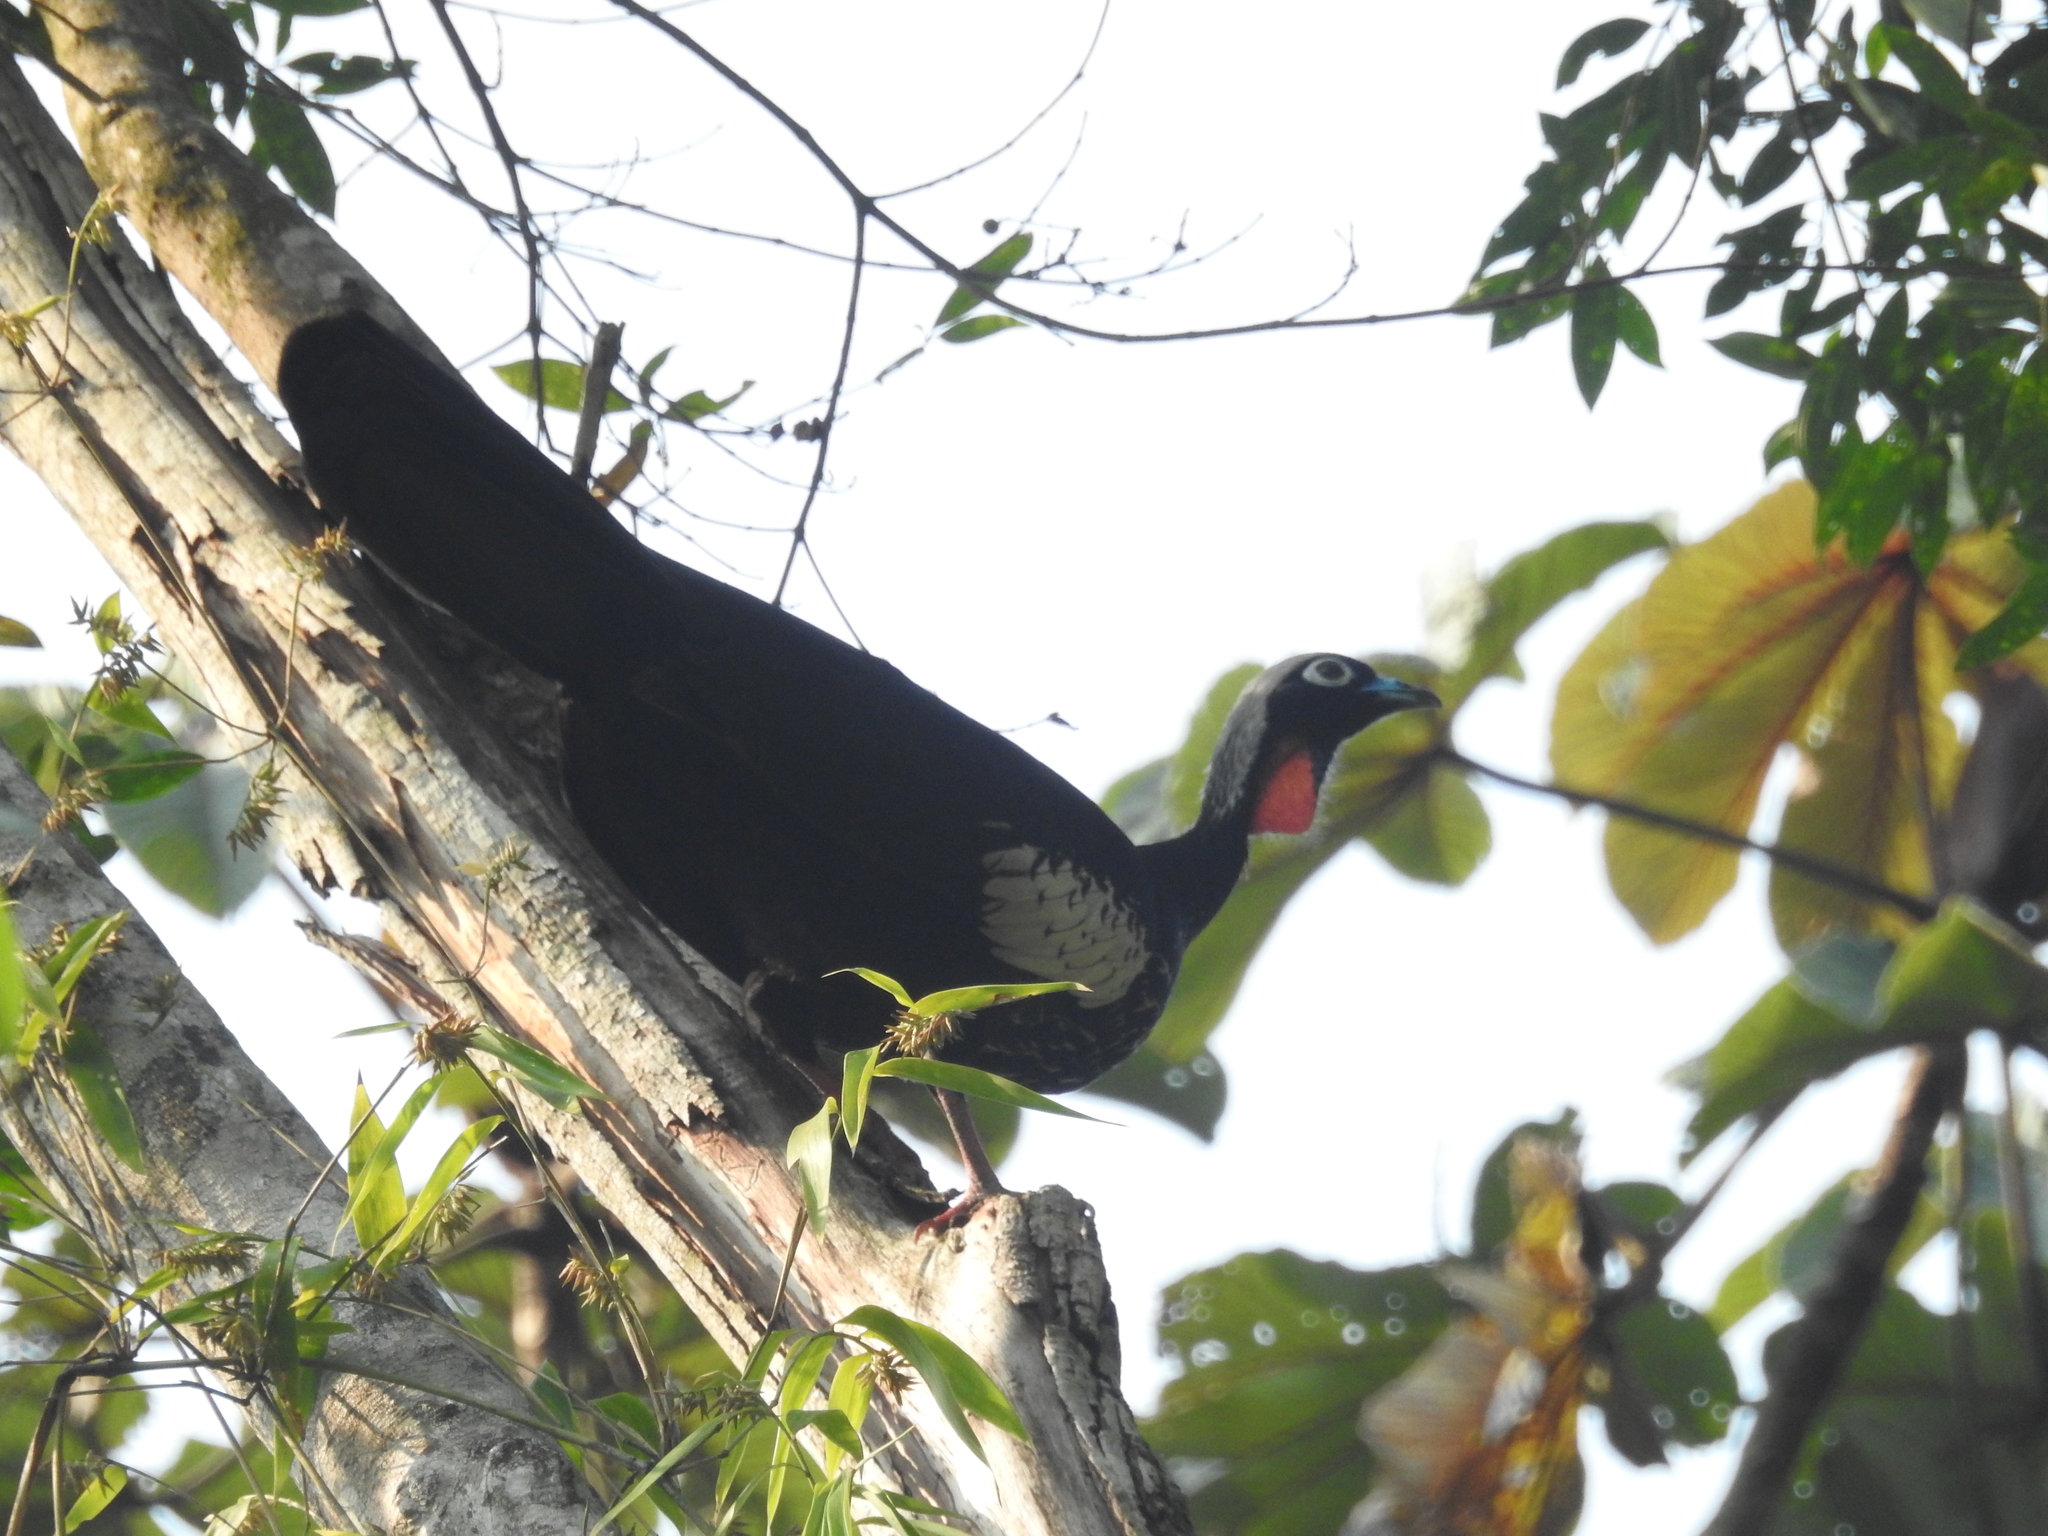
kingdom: Animalia
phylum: Chordata
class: Aves
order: Galliformes
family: Cracidae
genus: Pipile
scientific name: Pipile jacutinga
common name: Black-fronted piping-guan
